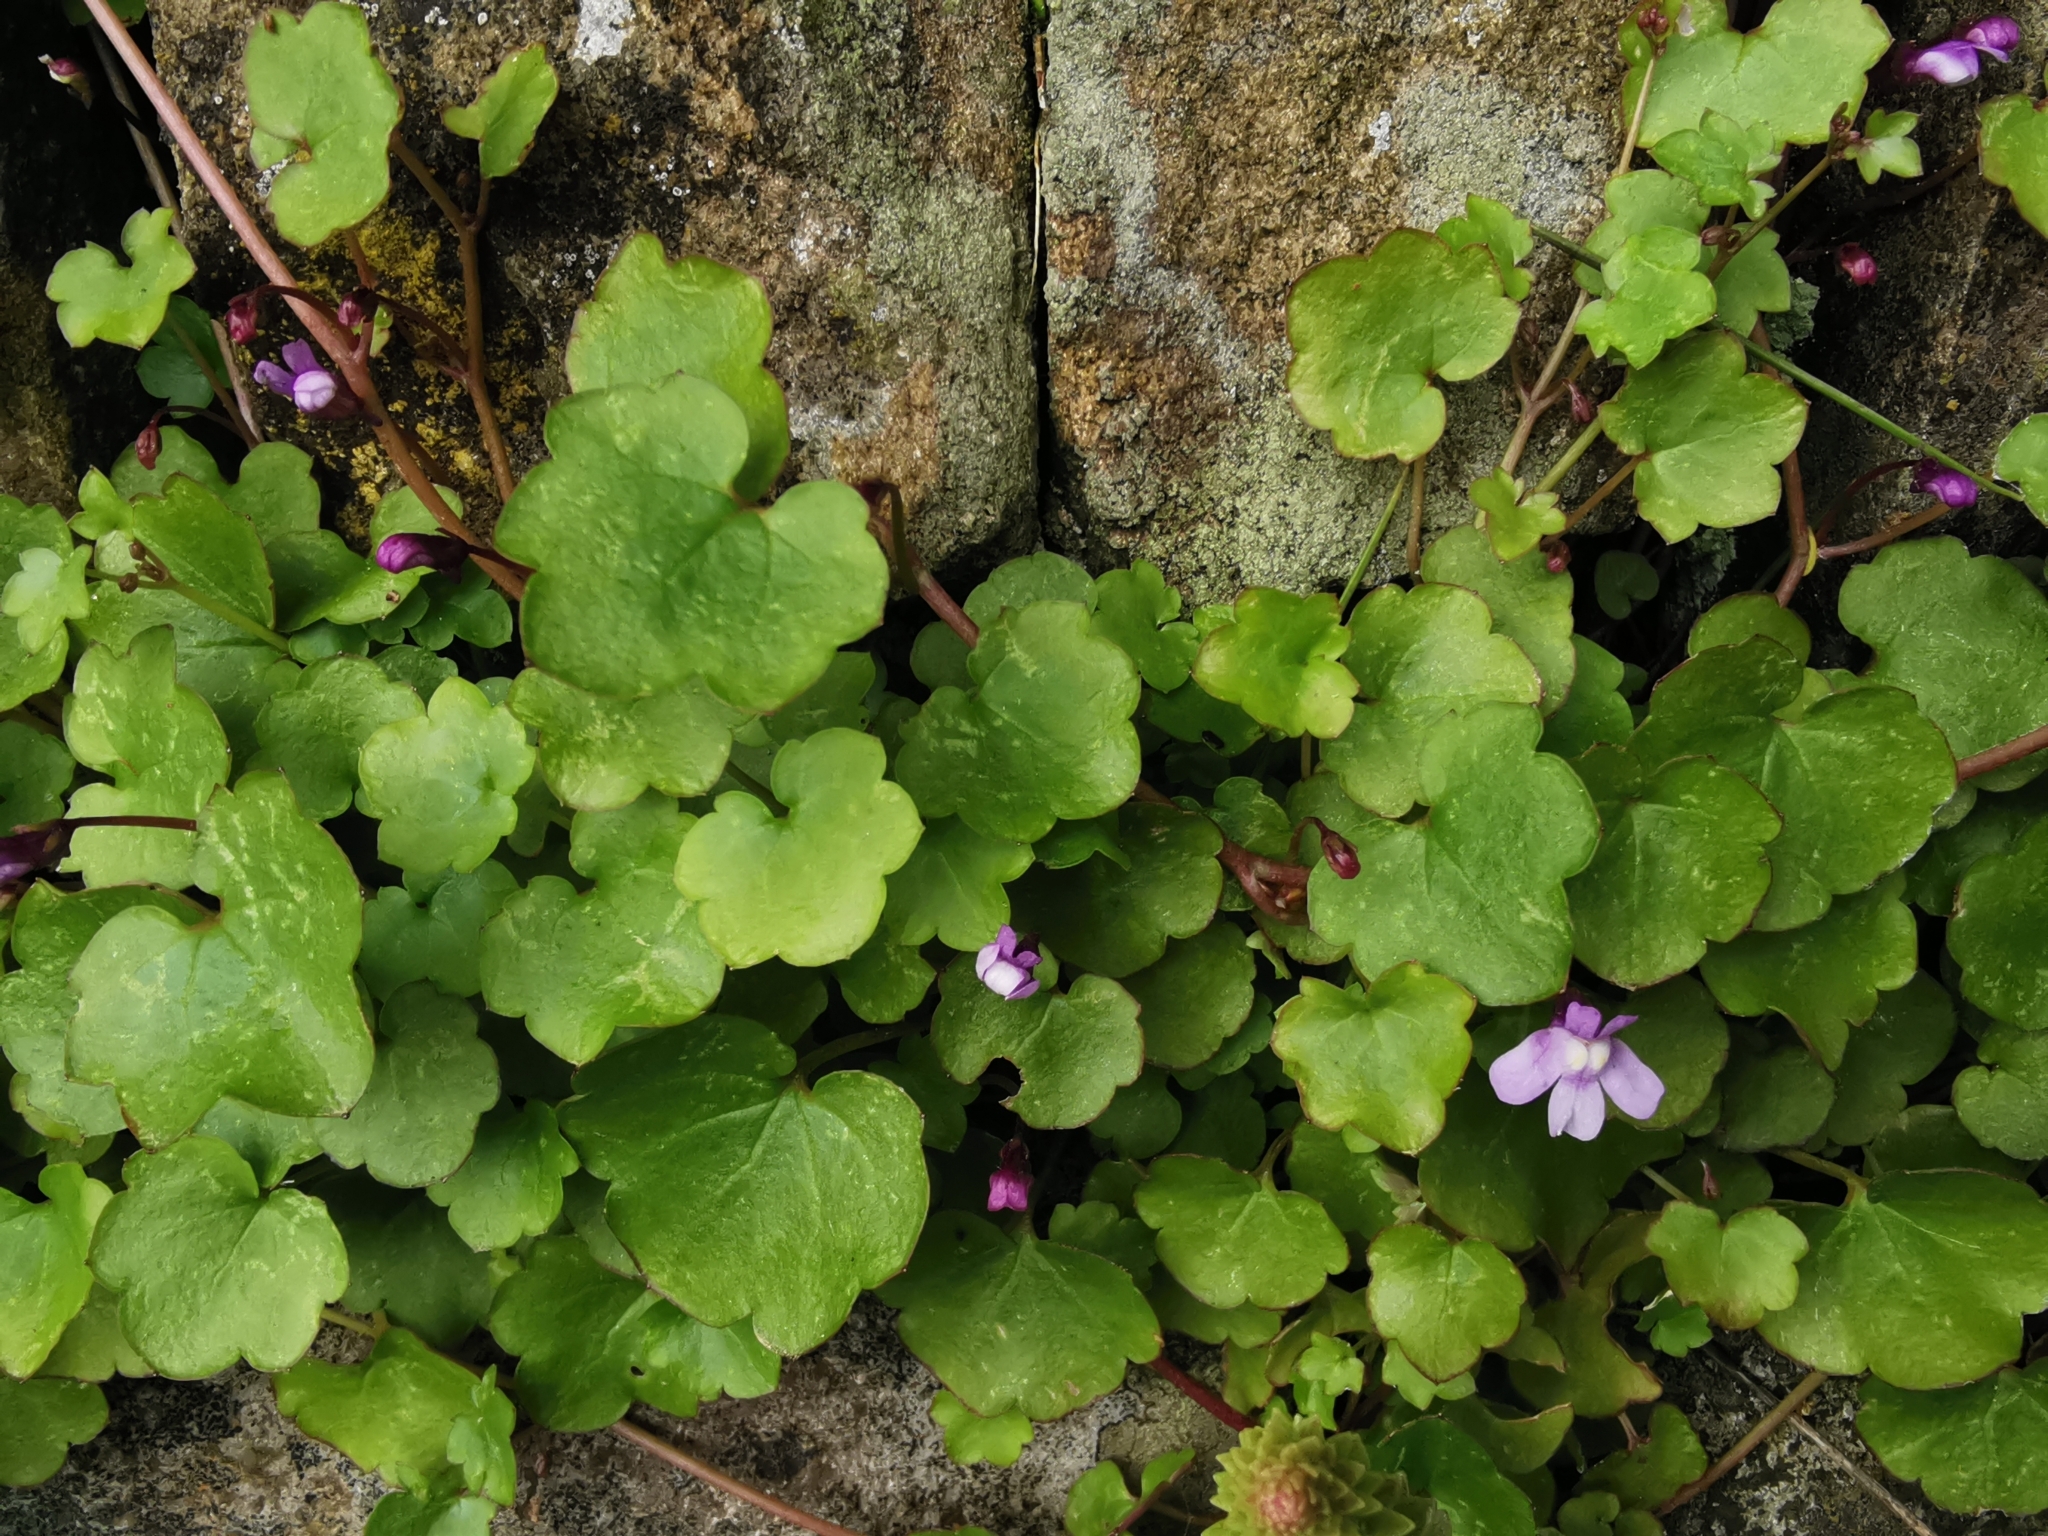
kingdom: Plantae
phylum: Tracheophyta
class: Magnoliopsida
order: Lamiales
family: Plantaginaceae
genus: Cymbalaria
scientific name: Cymbalaria muralis
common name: Ivy-leaved toadflax
